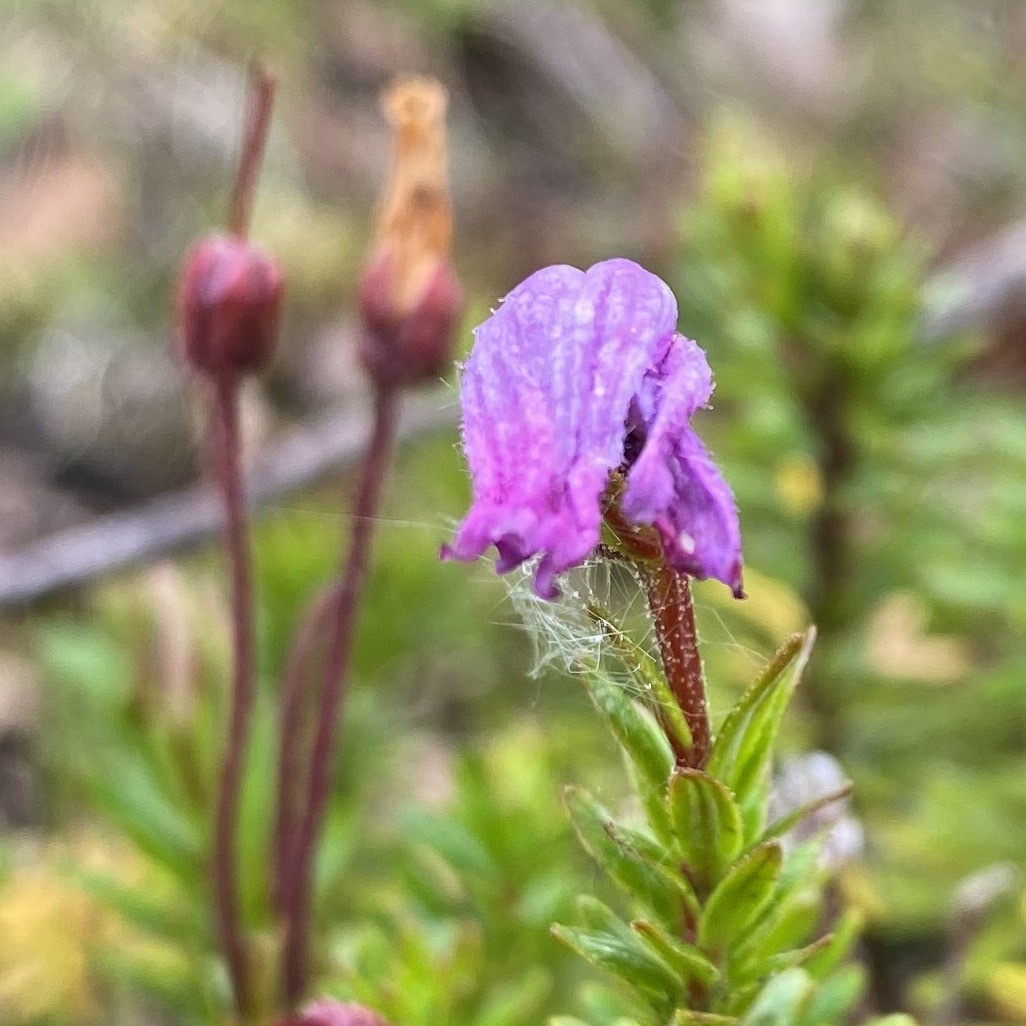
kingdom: Plantae
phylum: Tracheophyta
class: Magnoliopsida
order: Ericales
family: Ericaceae
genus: Phyllodoce
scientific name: Phyllodoce caerulea
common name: Blue heath
